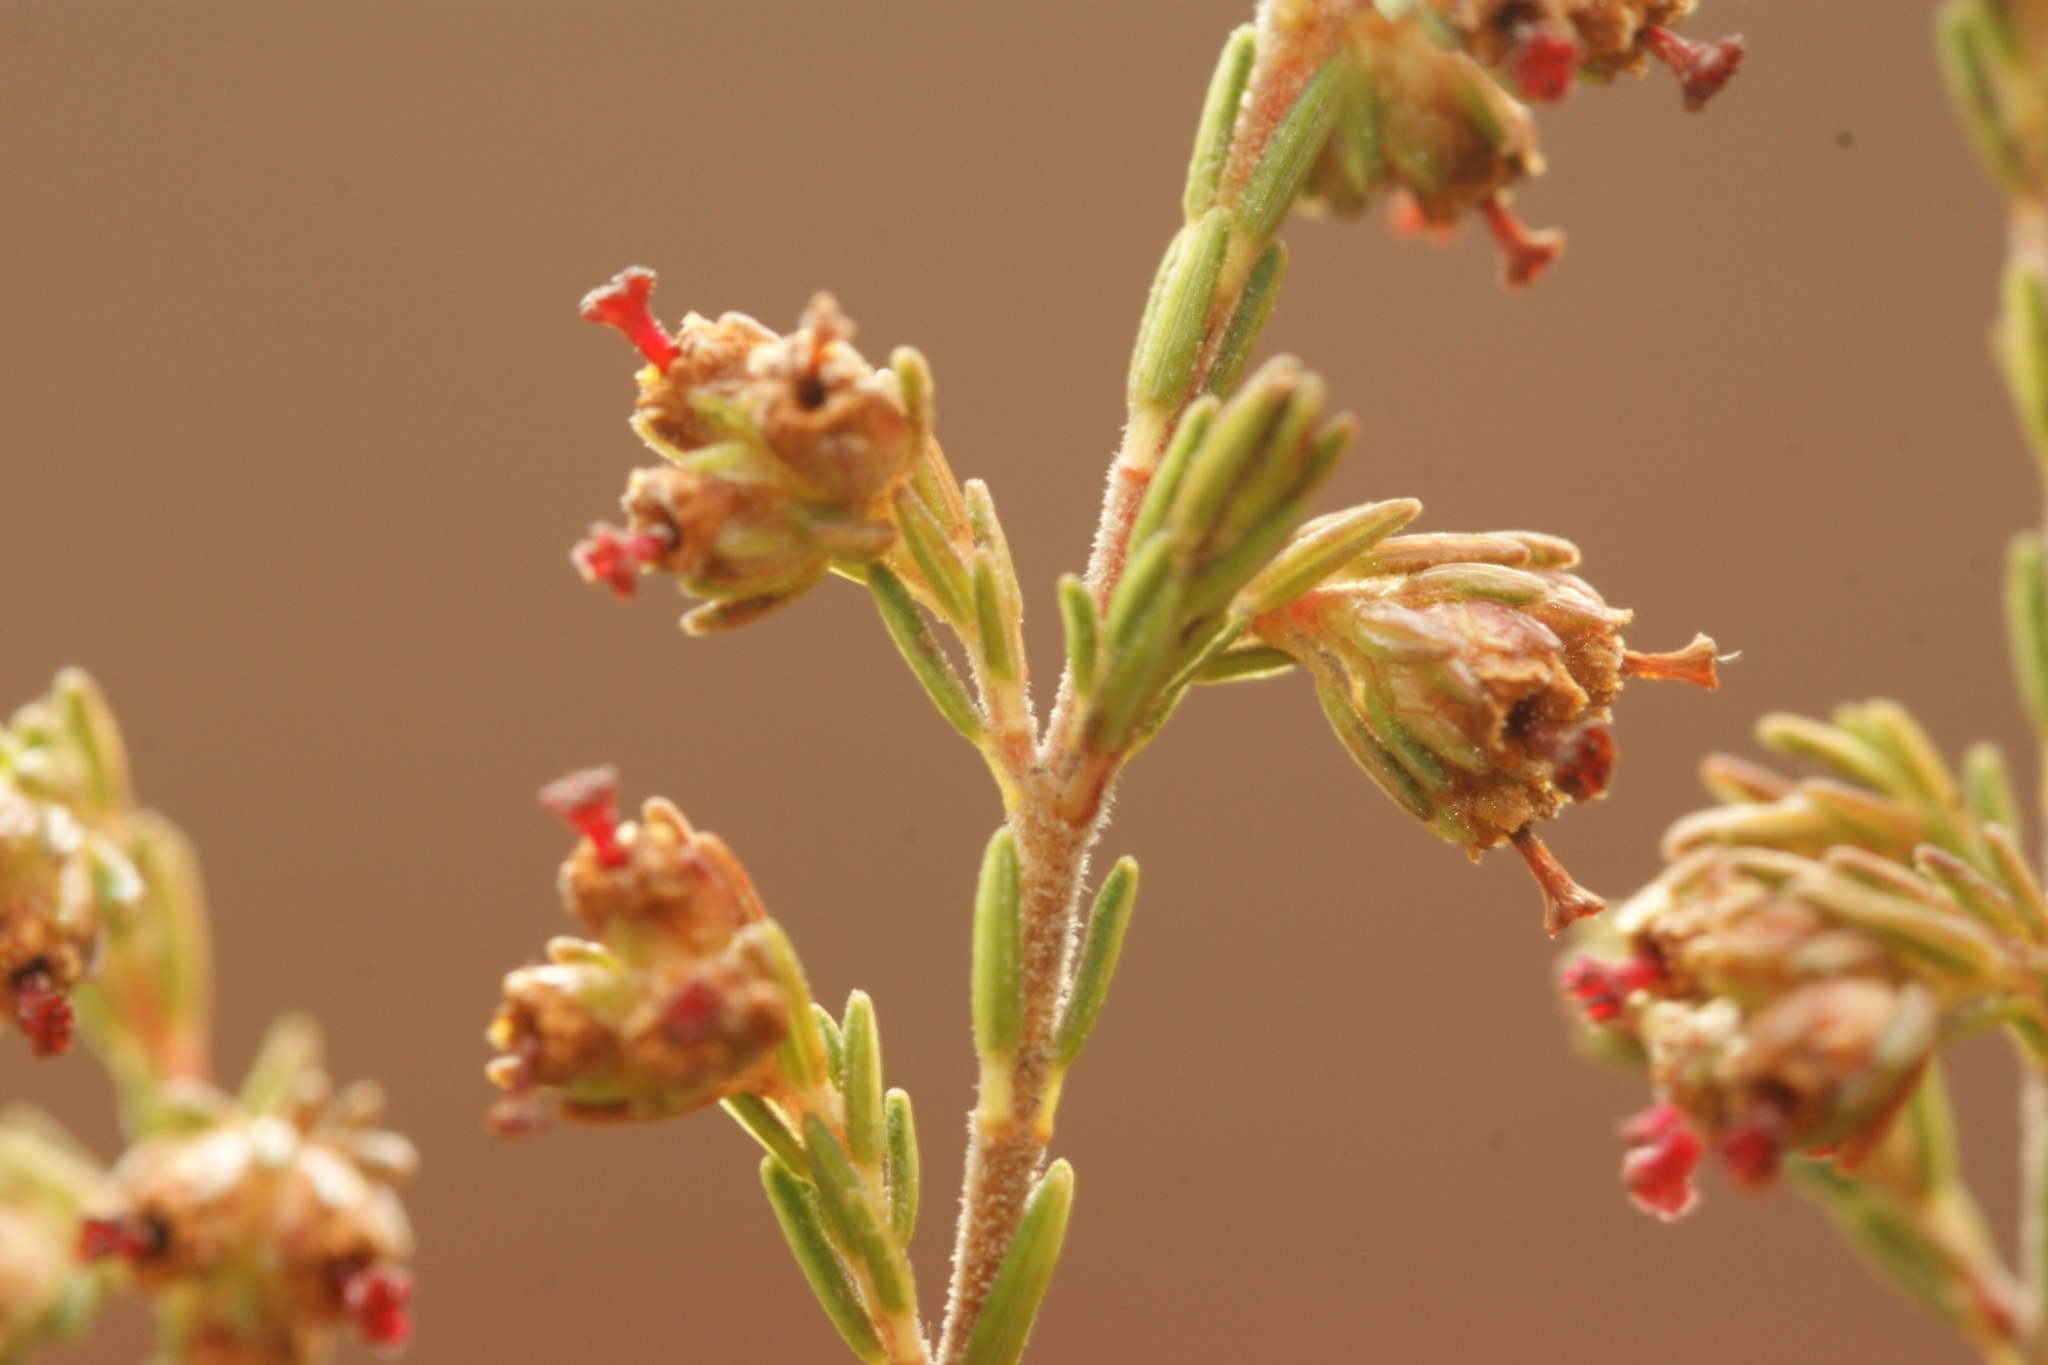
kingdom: Plantae
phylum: Tracheophyta
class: Magnoliopsida
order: Ericales
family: Ericaceae
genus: Erica
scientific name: Erica lasciva
